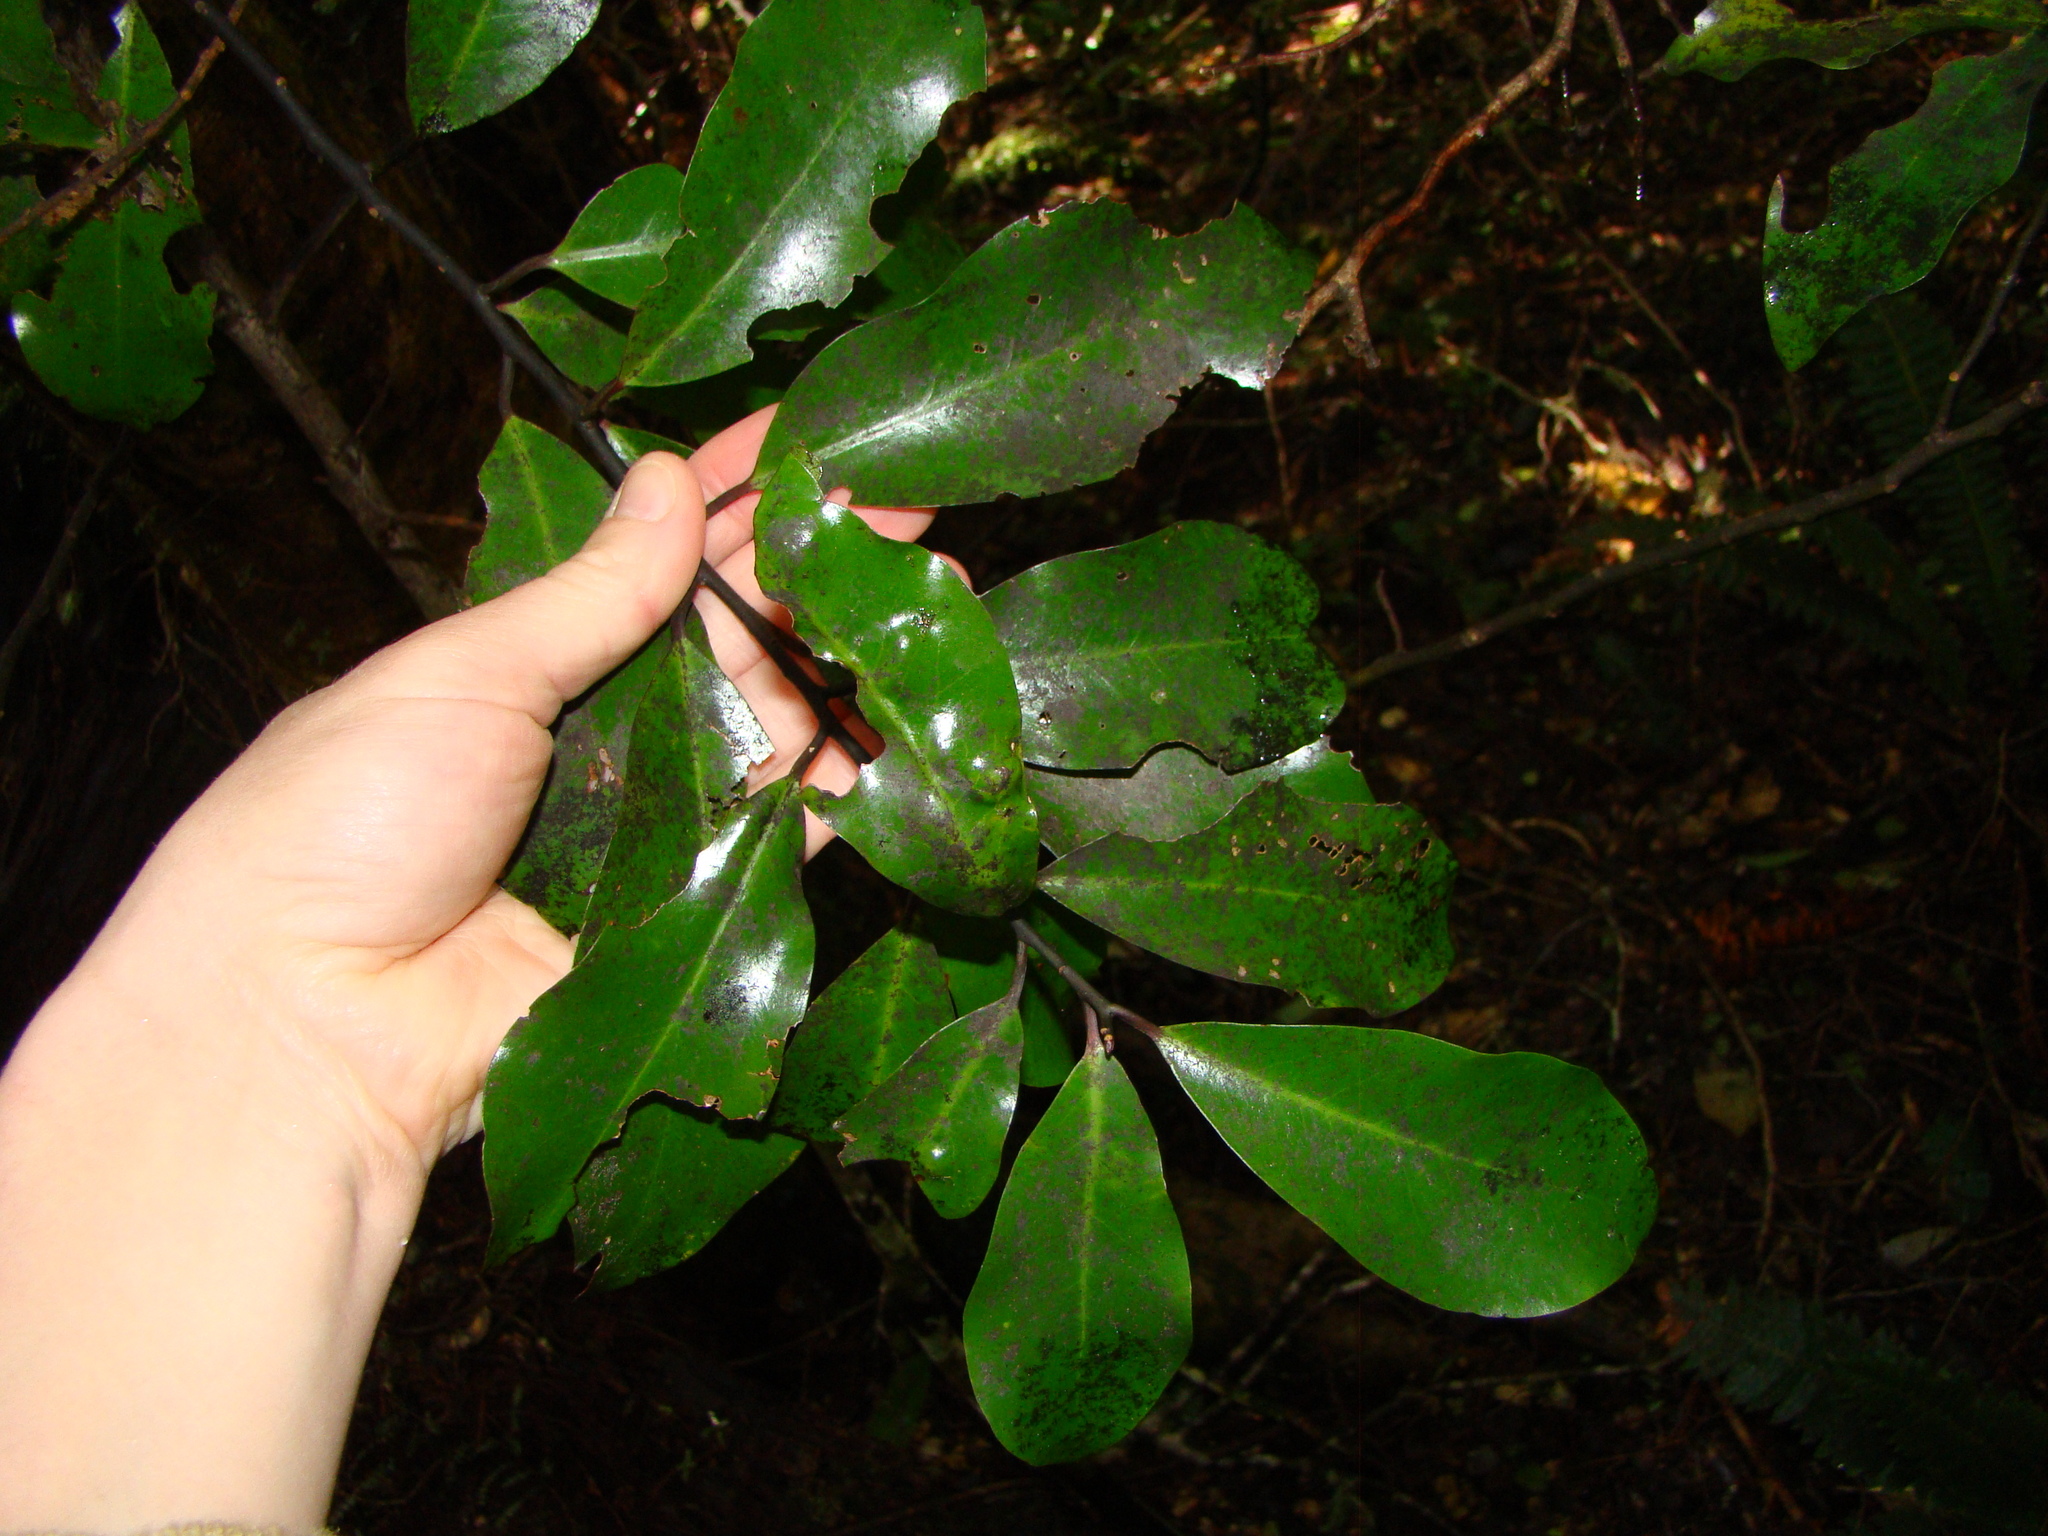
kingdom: Plantae
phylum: Tracheophyta
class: Magnoliopsida
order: Canellales
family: Winteraceae
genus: Pseudowintera
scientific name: Pseudowintera axillaris
